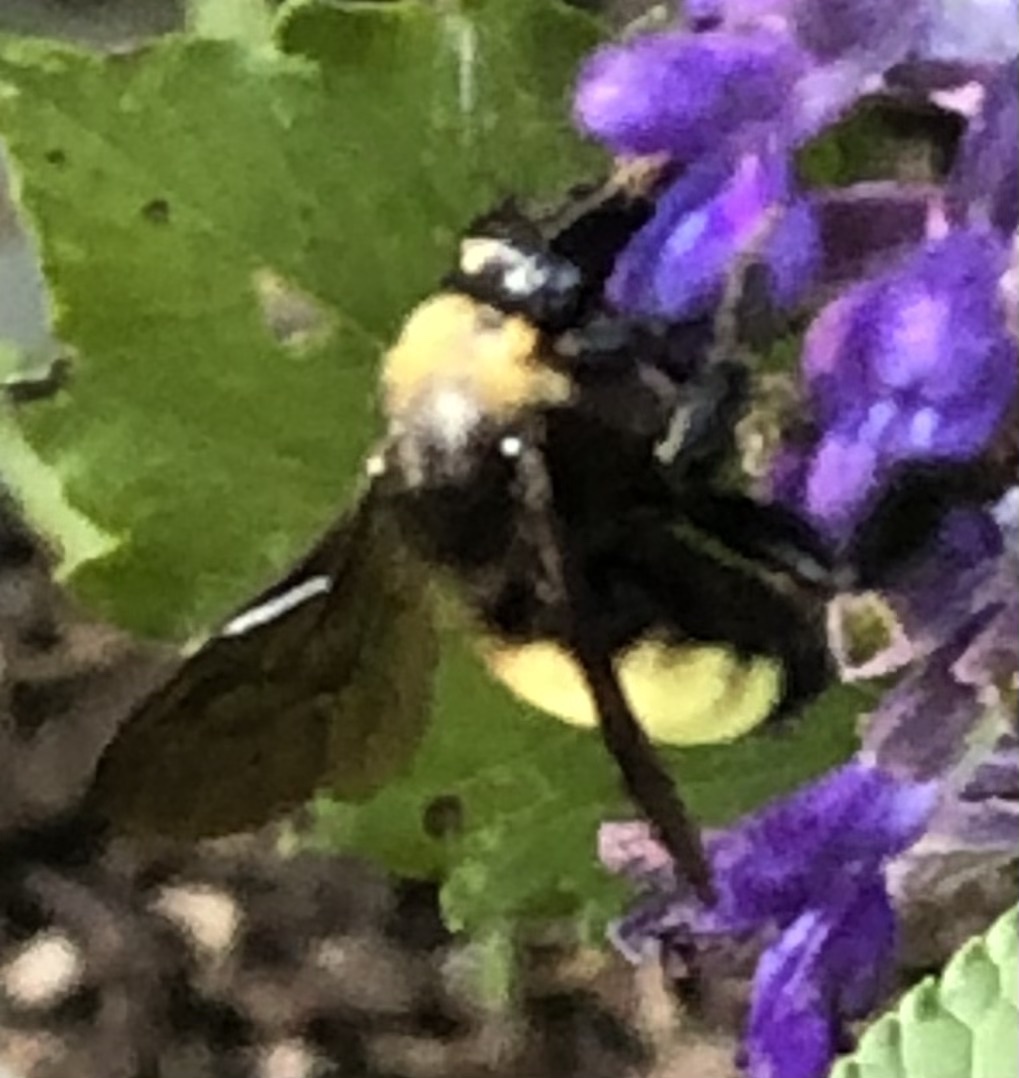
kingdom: Animalia
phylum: Arthropoda
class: Insecta
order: Hymenoptera
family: Apidae
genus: Bombus
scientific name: Bombus pensylvanicus
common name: Bumble bee
